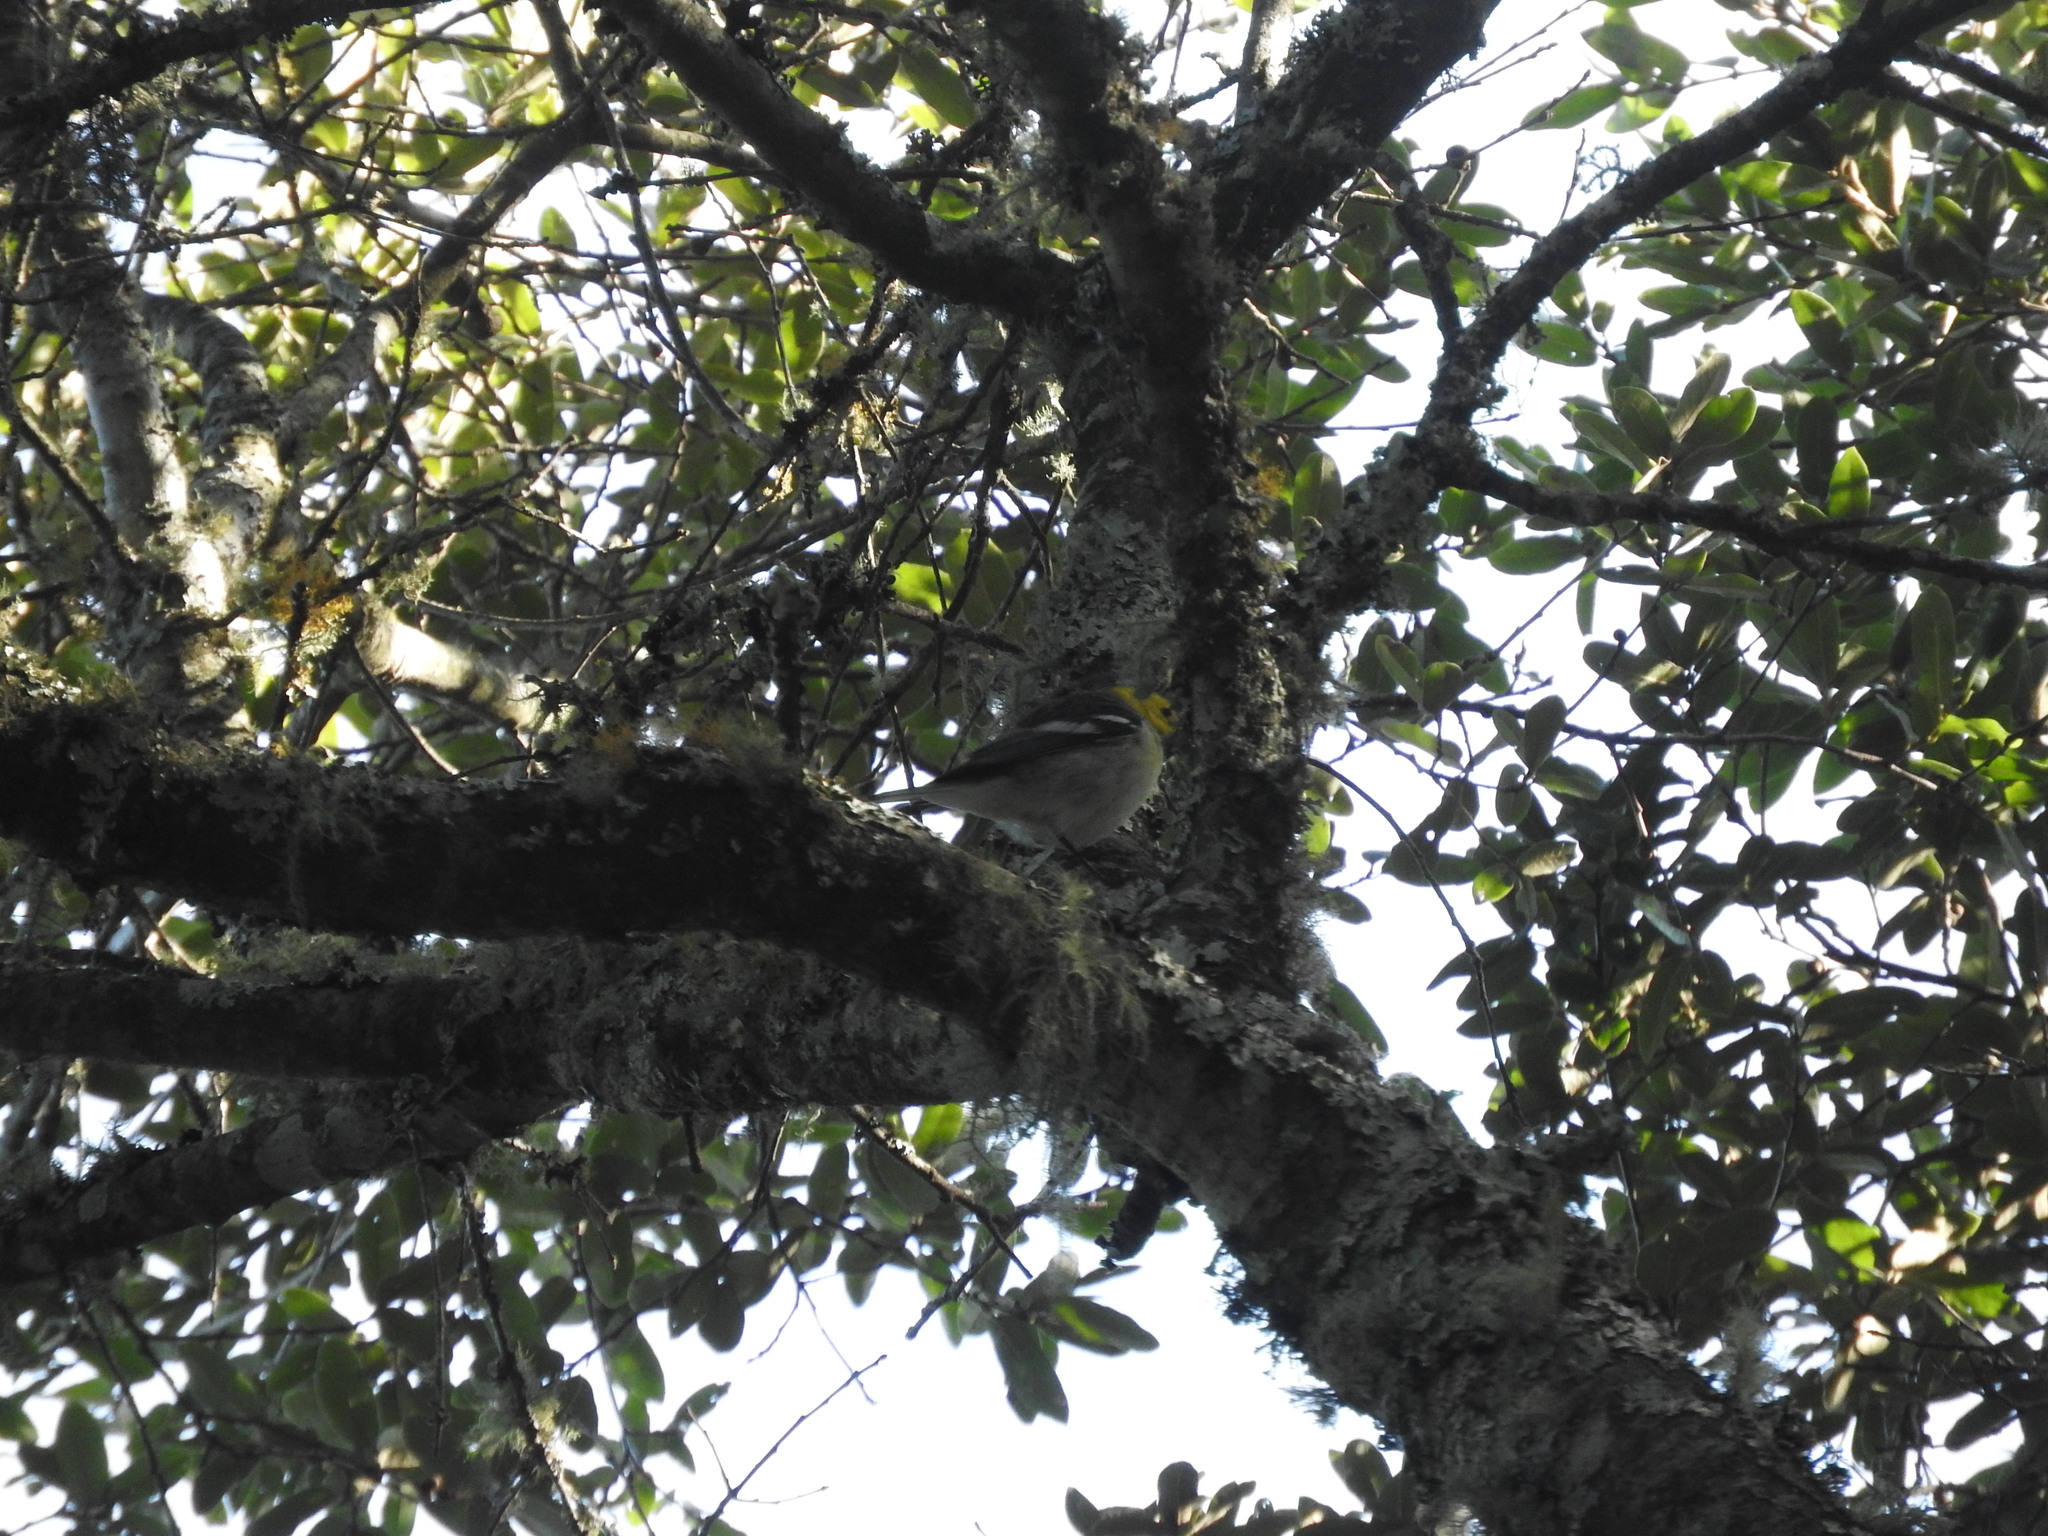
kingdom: Animalia
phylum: Chordata
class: Aves
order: Passeriformes
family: Parulidae
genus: Setophaga
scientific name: Setophaga occidentalis
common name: Hermit warbler
